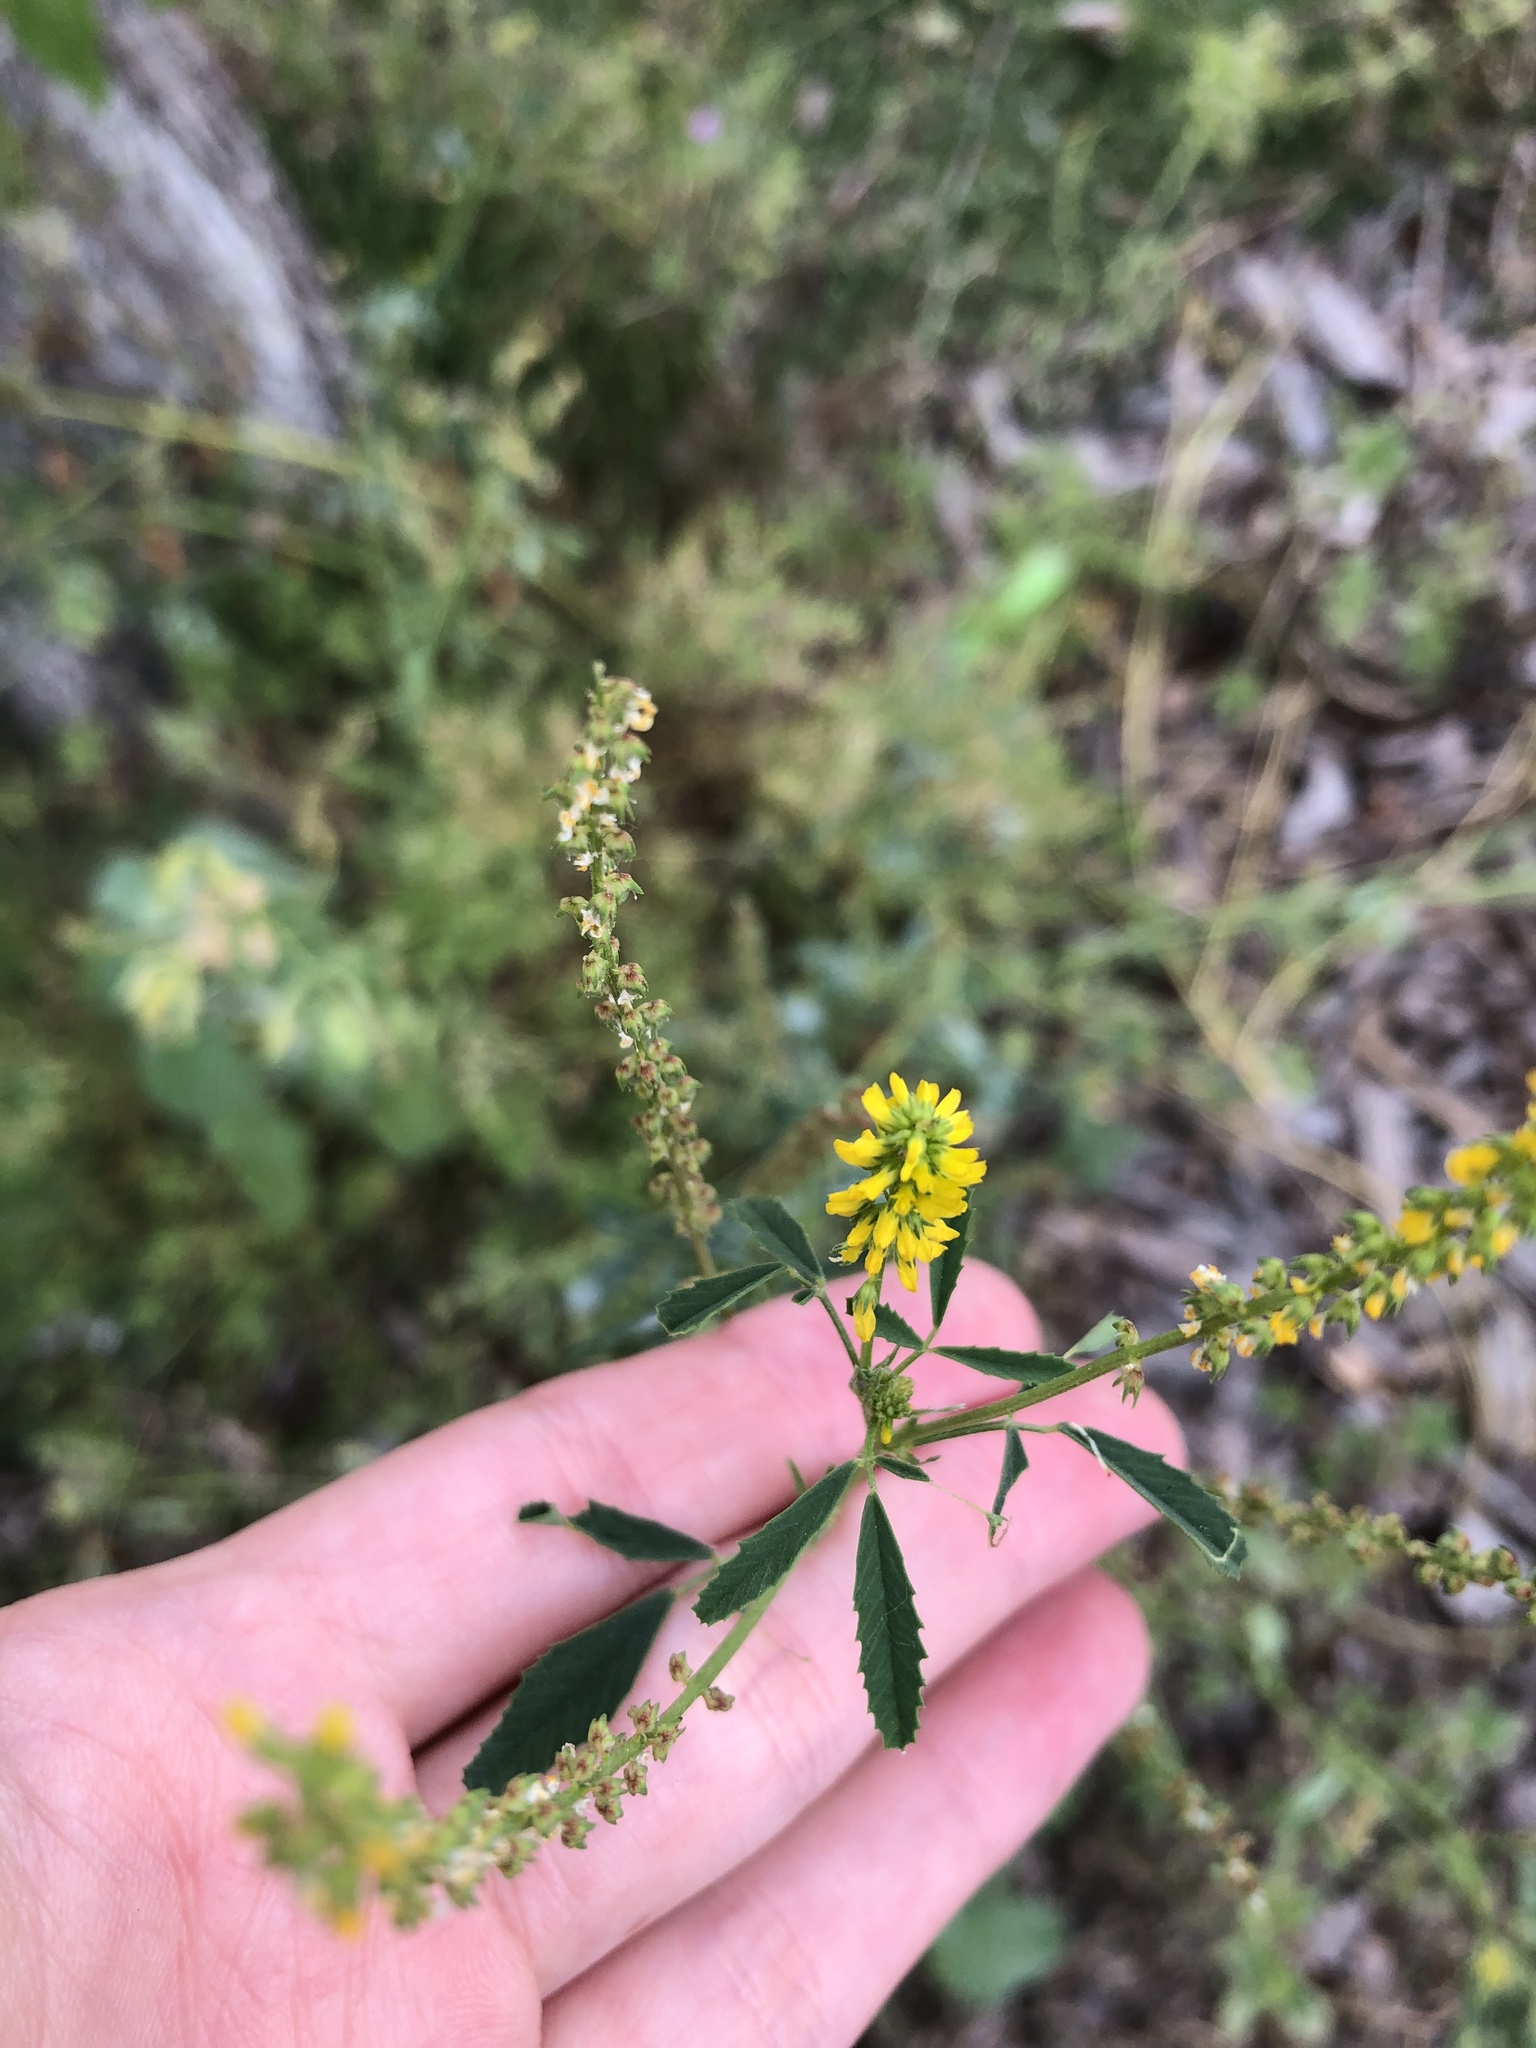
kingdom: Plantae
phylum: Tracheophyta
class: Magnoliopsida
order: Fabales
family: Fabaceae
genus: Melilotus
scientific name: Melilotus indicus
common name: Small melilot
